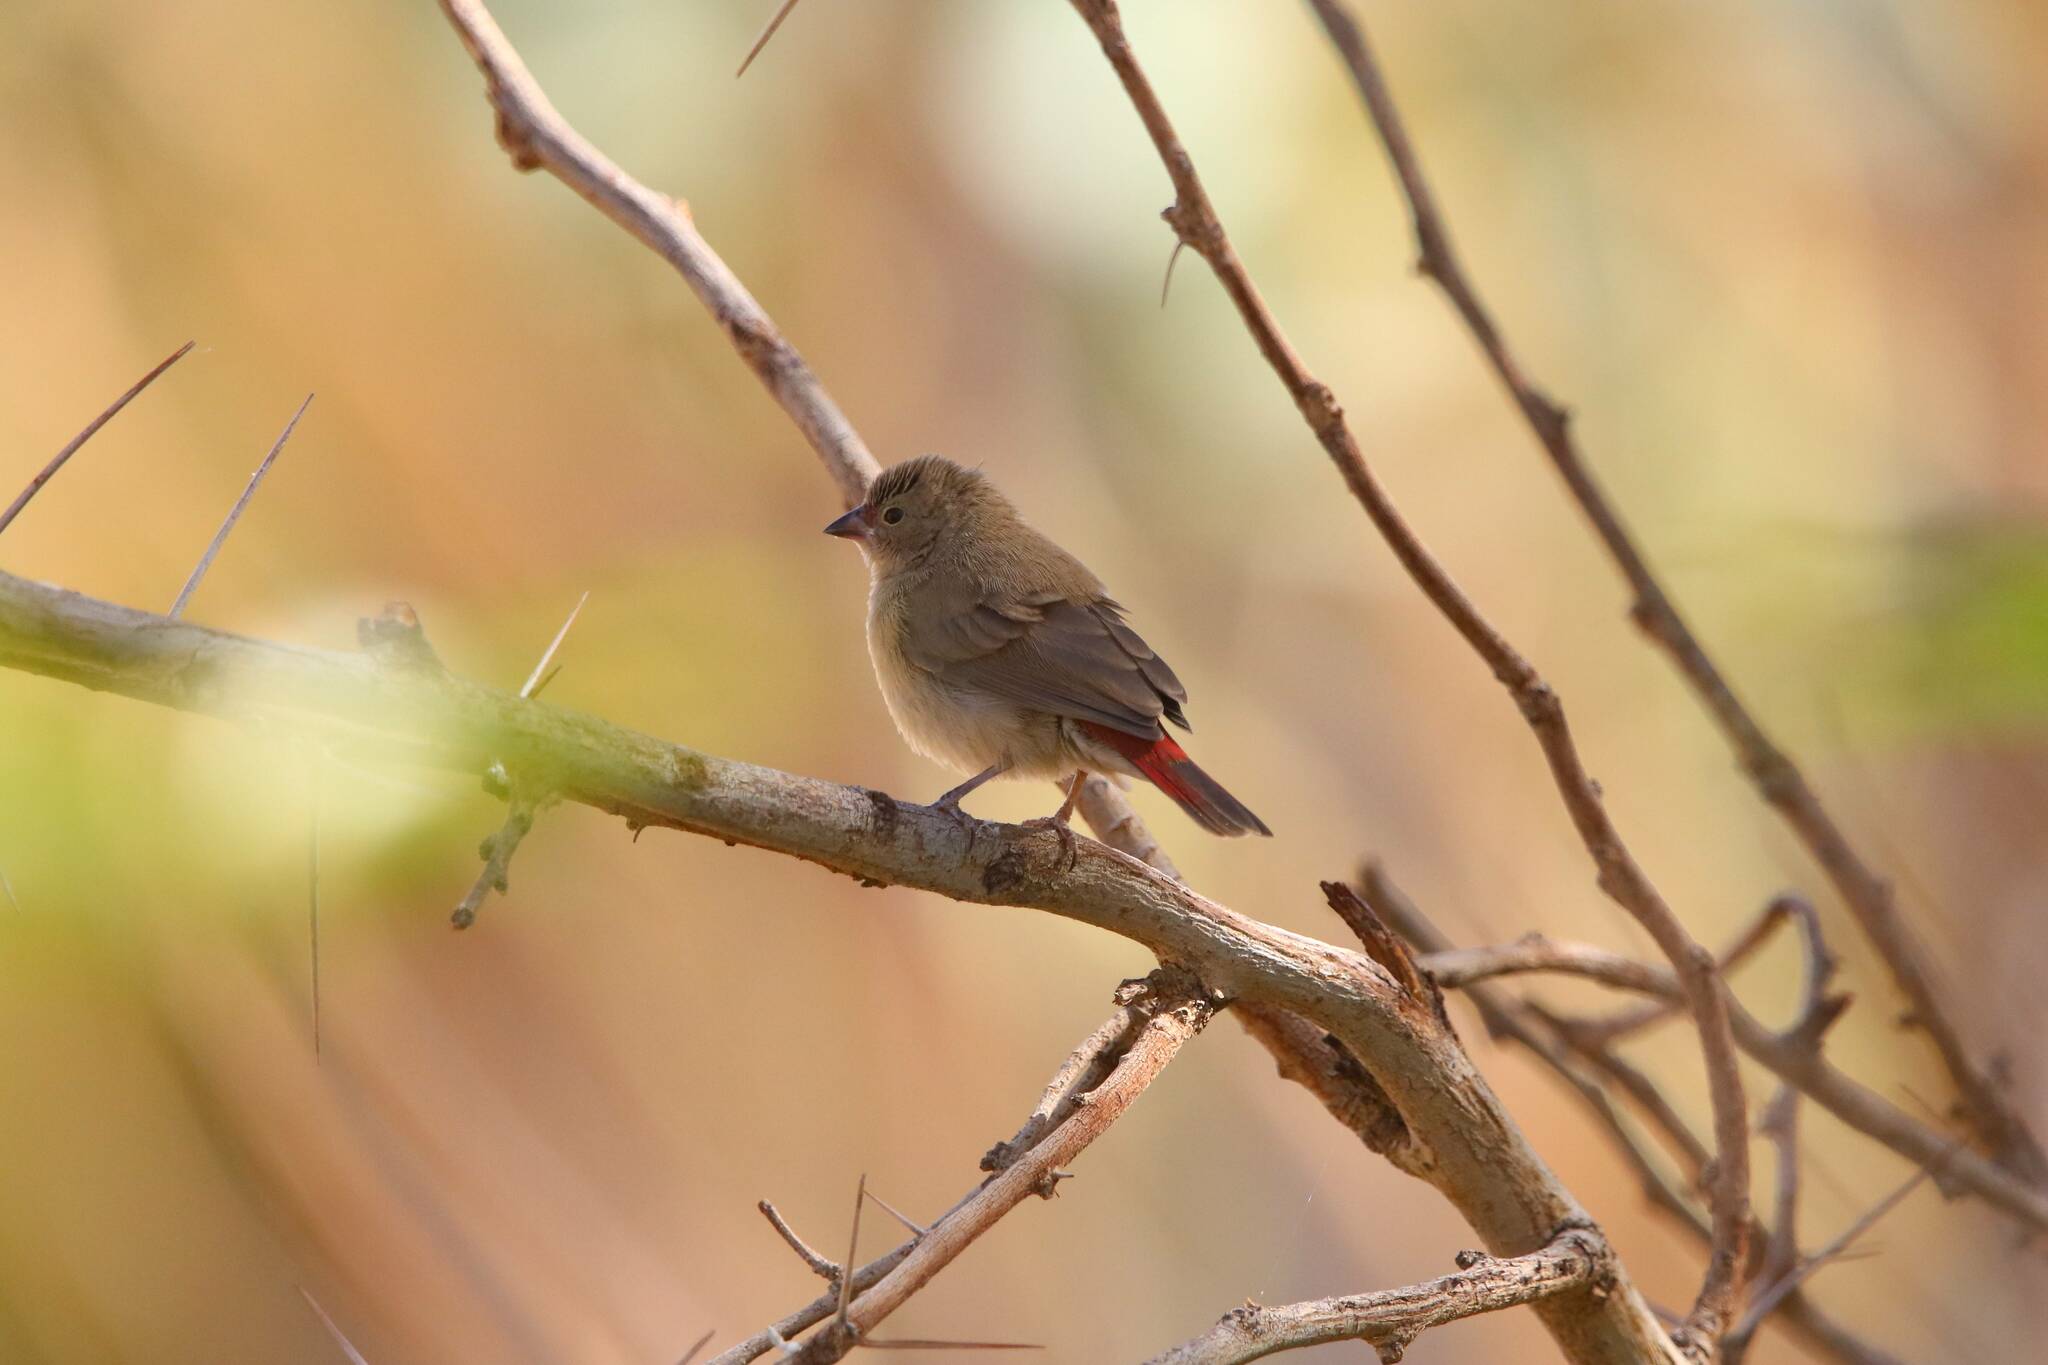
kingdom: Animalia
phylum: Chordata
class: Aves
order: Passeriformes
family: Estrildidae
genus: Lagonosticta
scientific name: Lagonosticta senegala
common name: Red-billed firefinch
